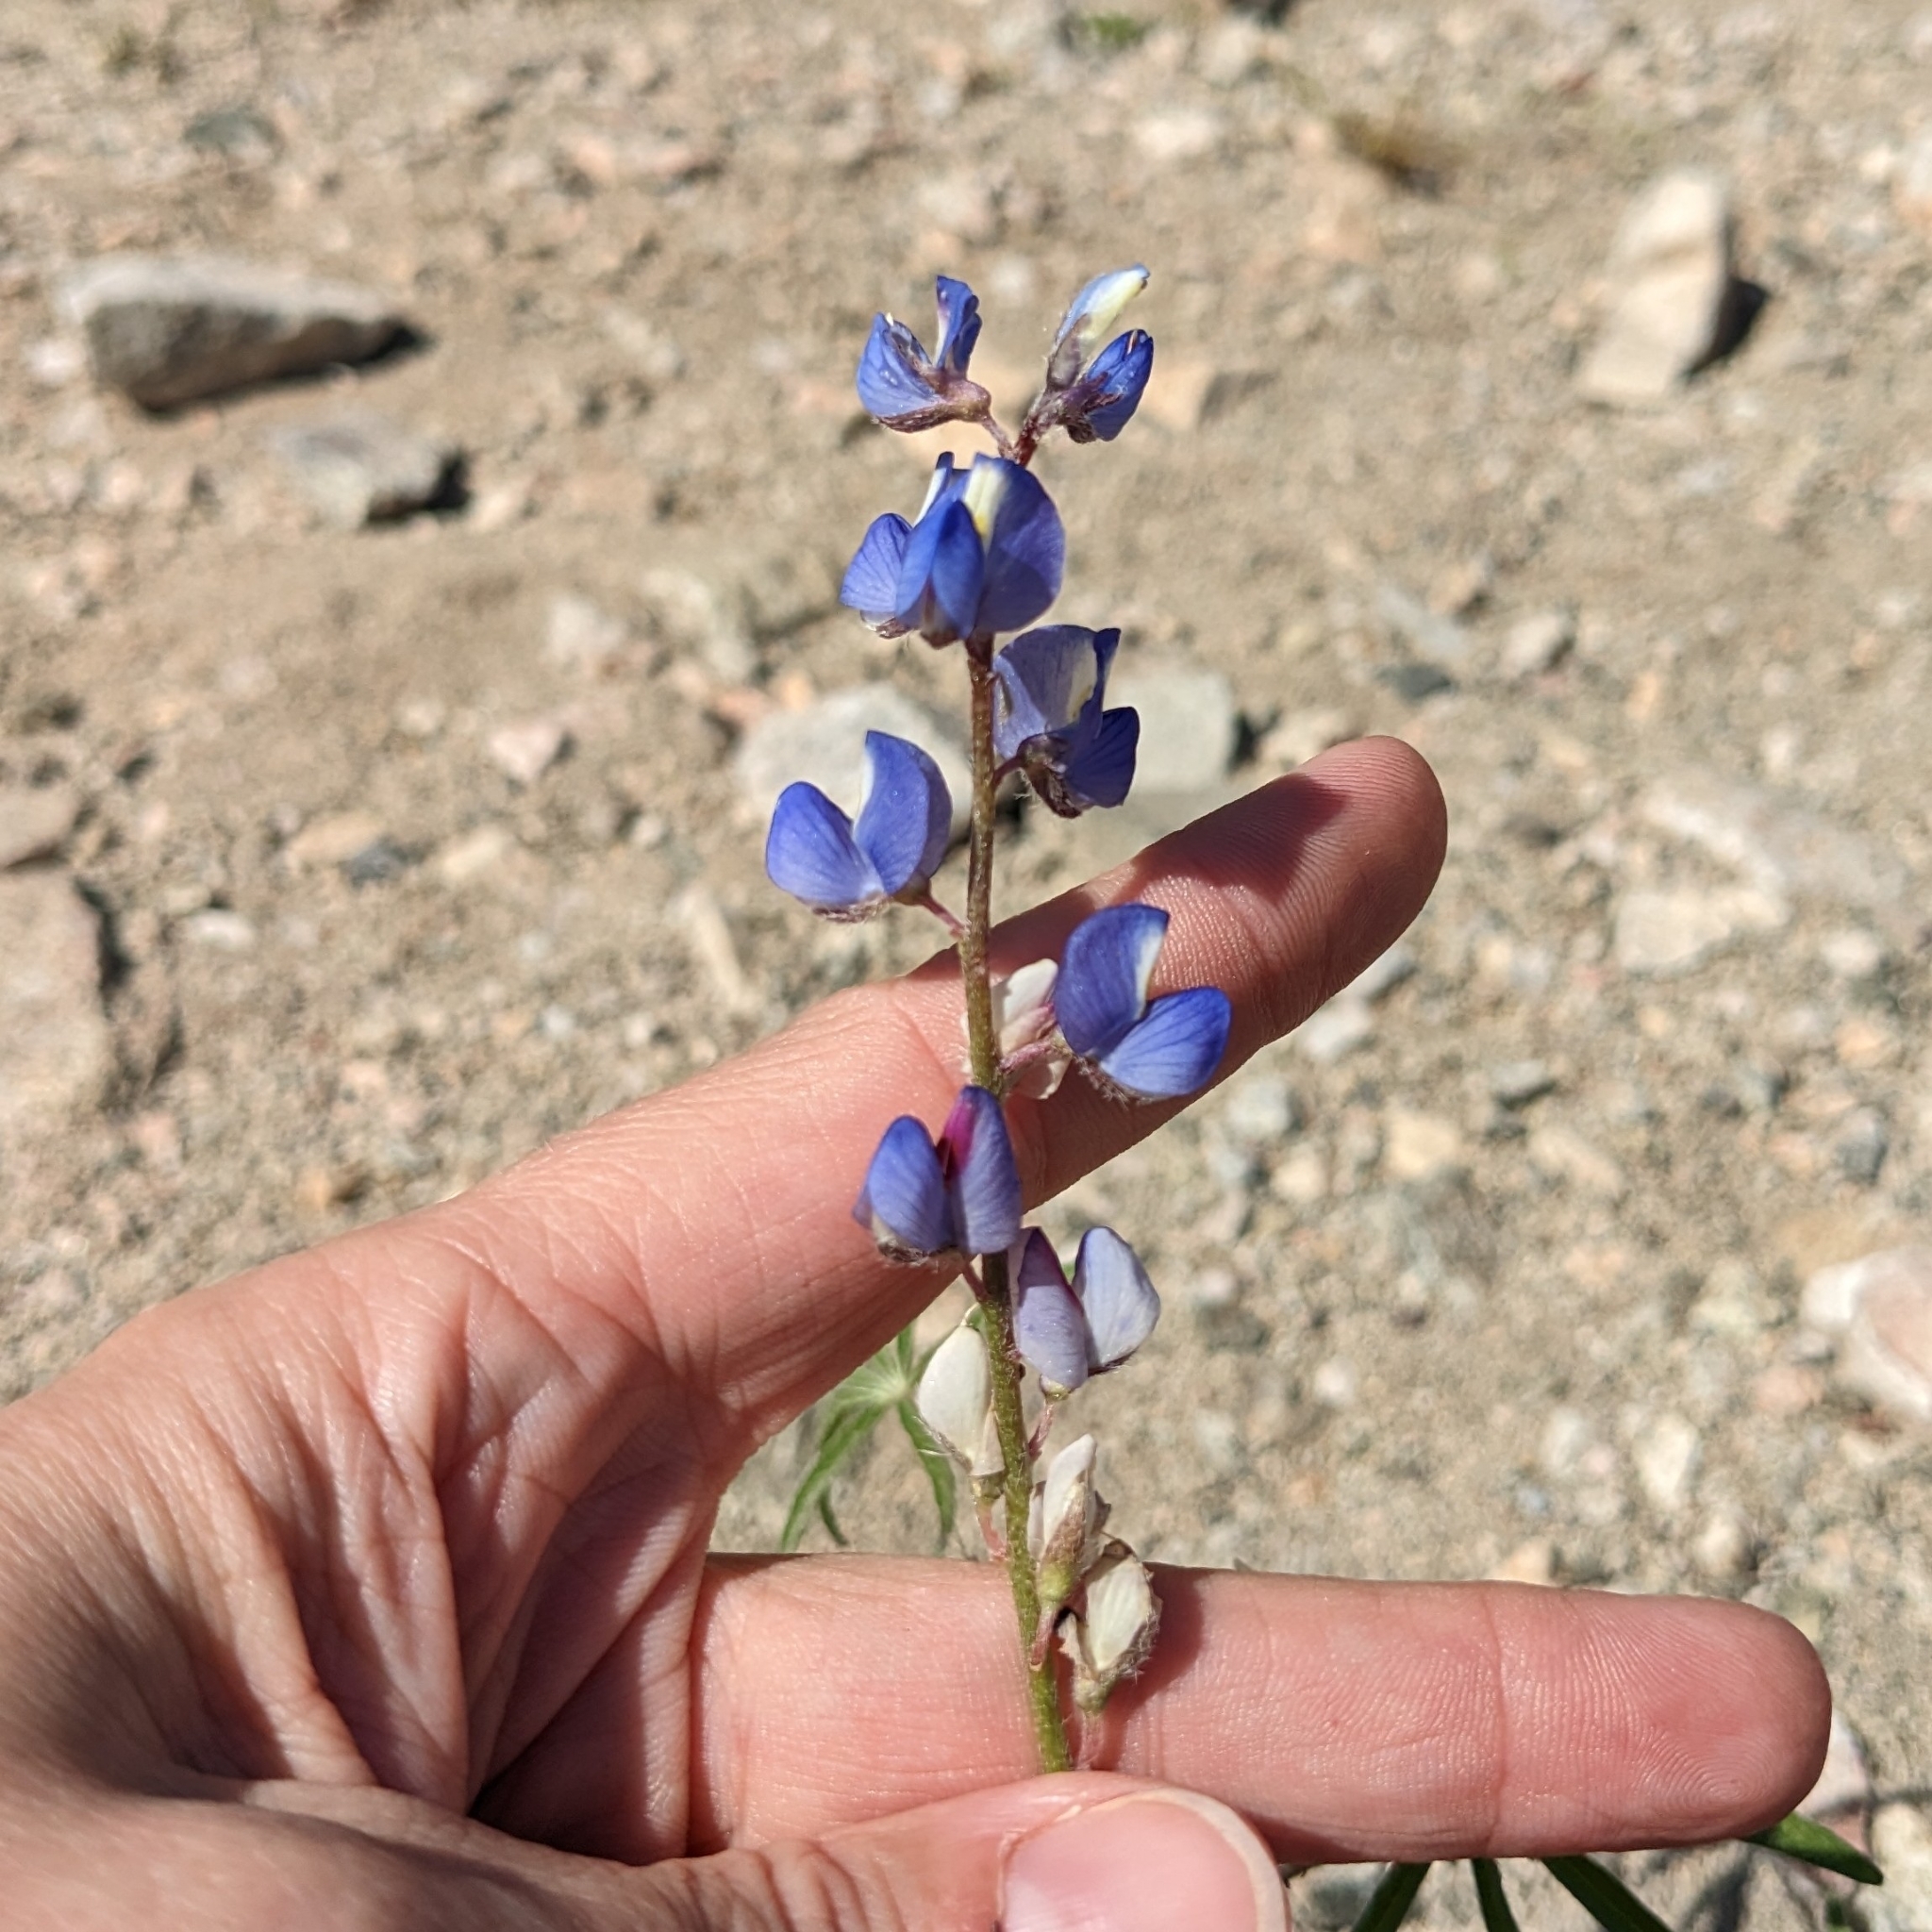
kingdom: Plantae
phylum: Tracheophyta
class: Magnoliopsida
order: Fabales
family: Fabaceae
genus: Lupinus
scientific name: Lupinus sparsiflorus
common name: Coulter's lupine
